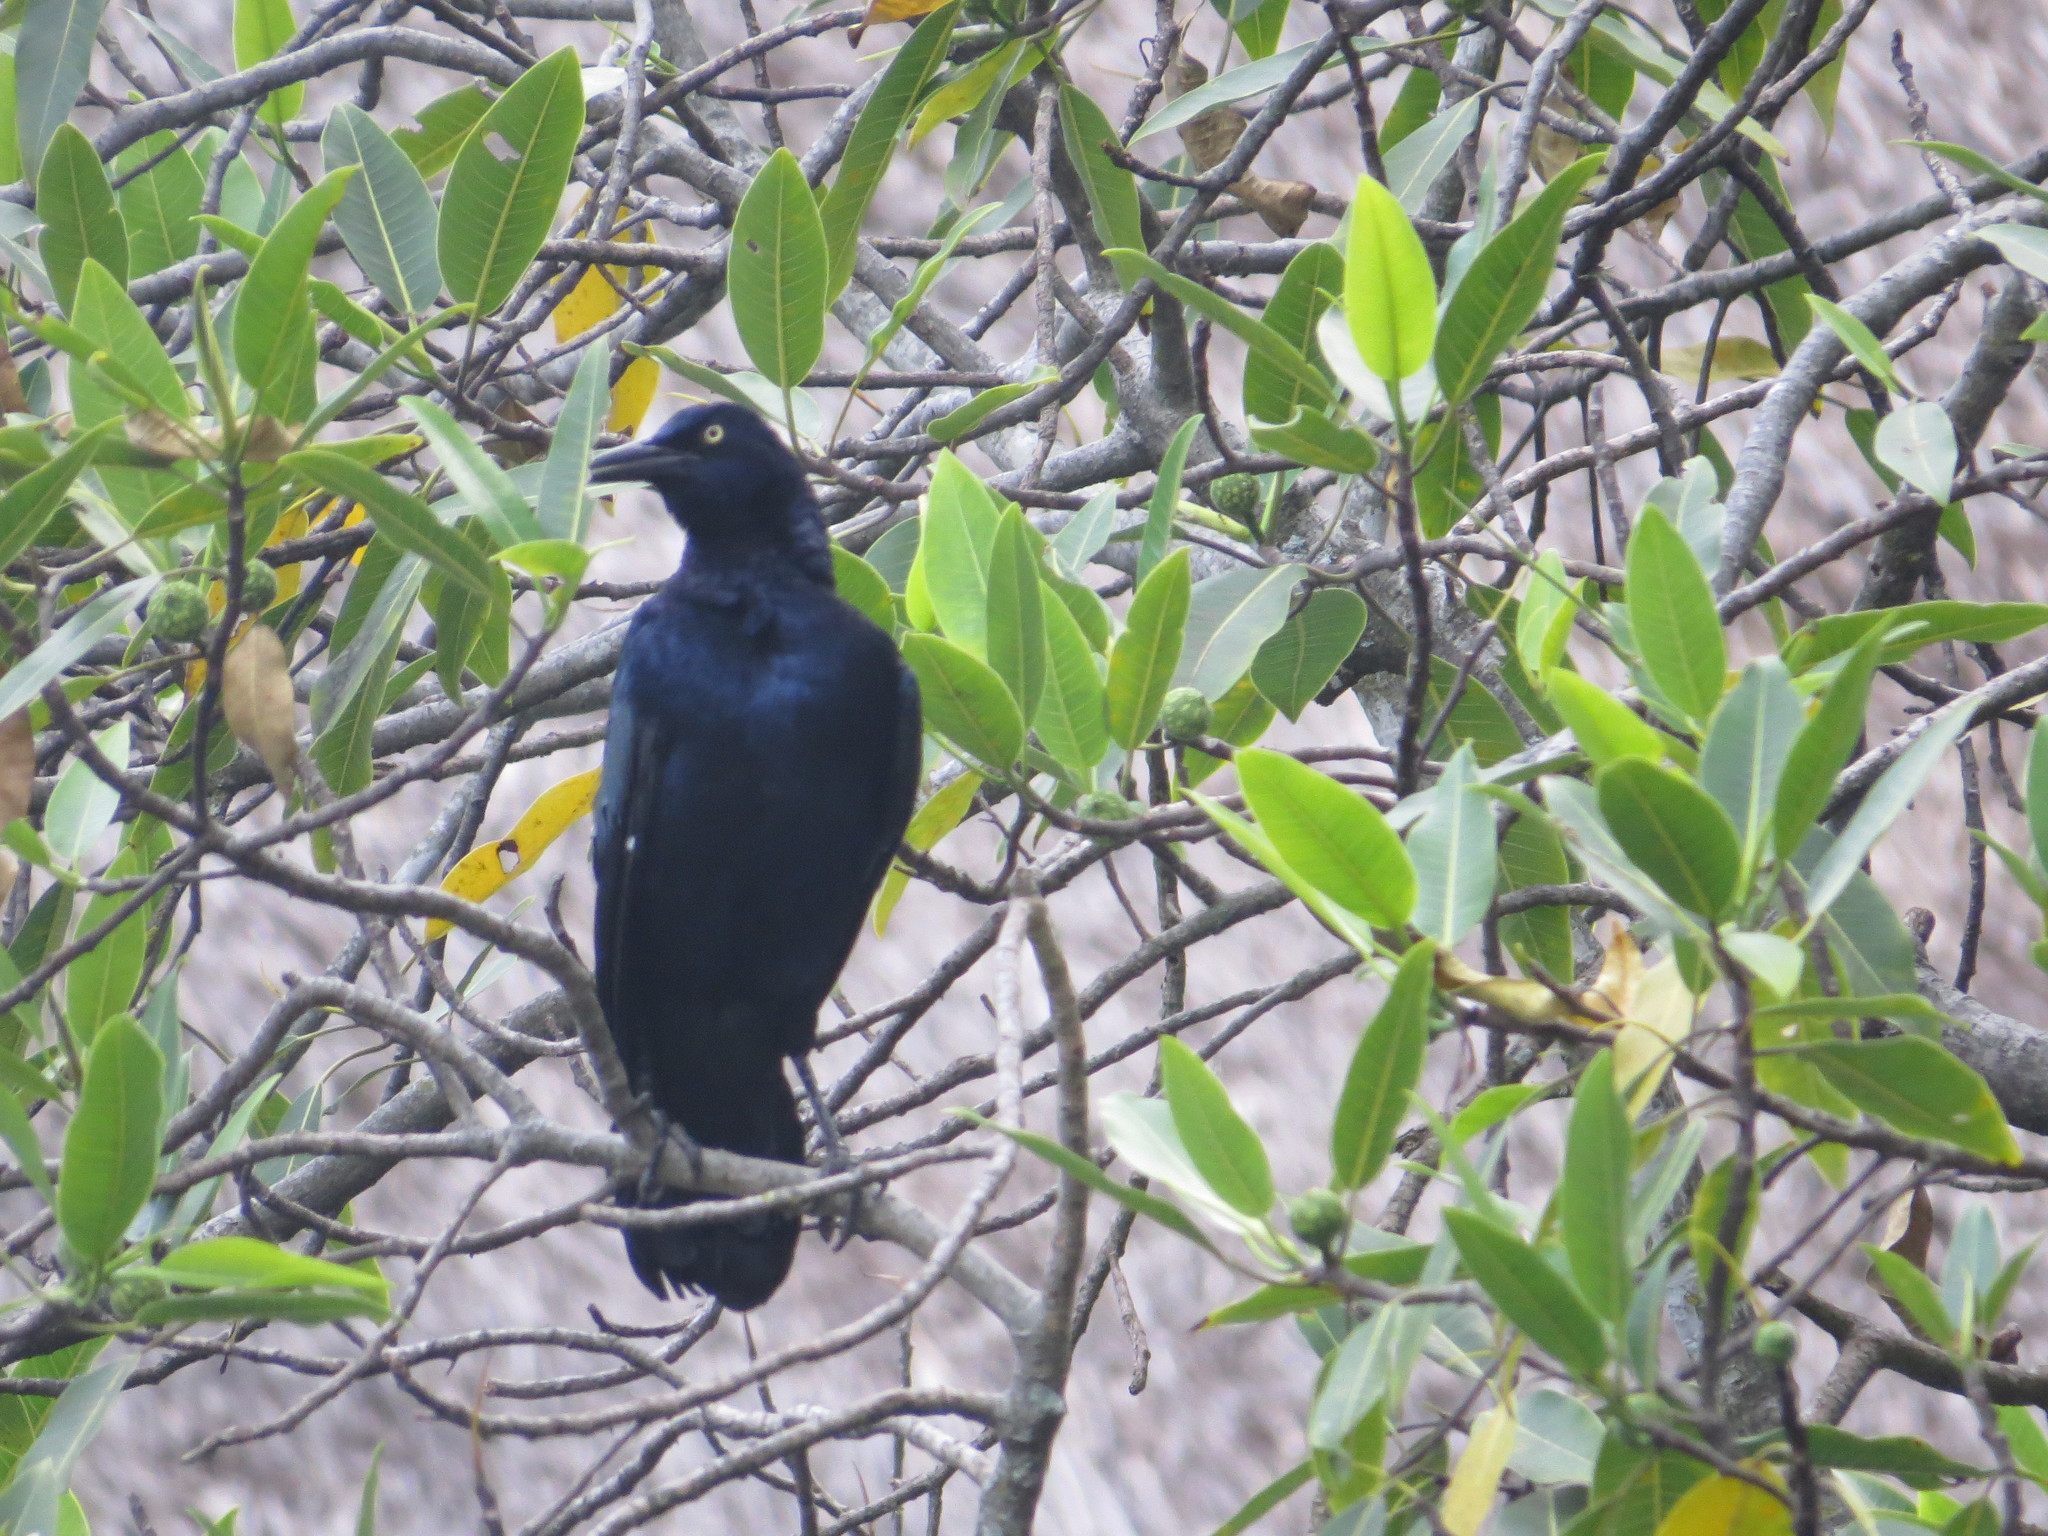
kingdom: Animalia
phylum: Chordata
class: Aves
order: Passeriformes
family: Icteridae
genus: Quiscalus
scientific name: Quiscalus mexicanus
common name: Great-tailed grackle
